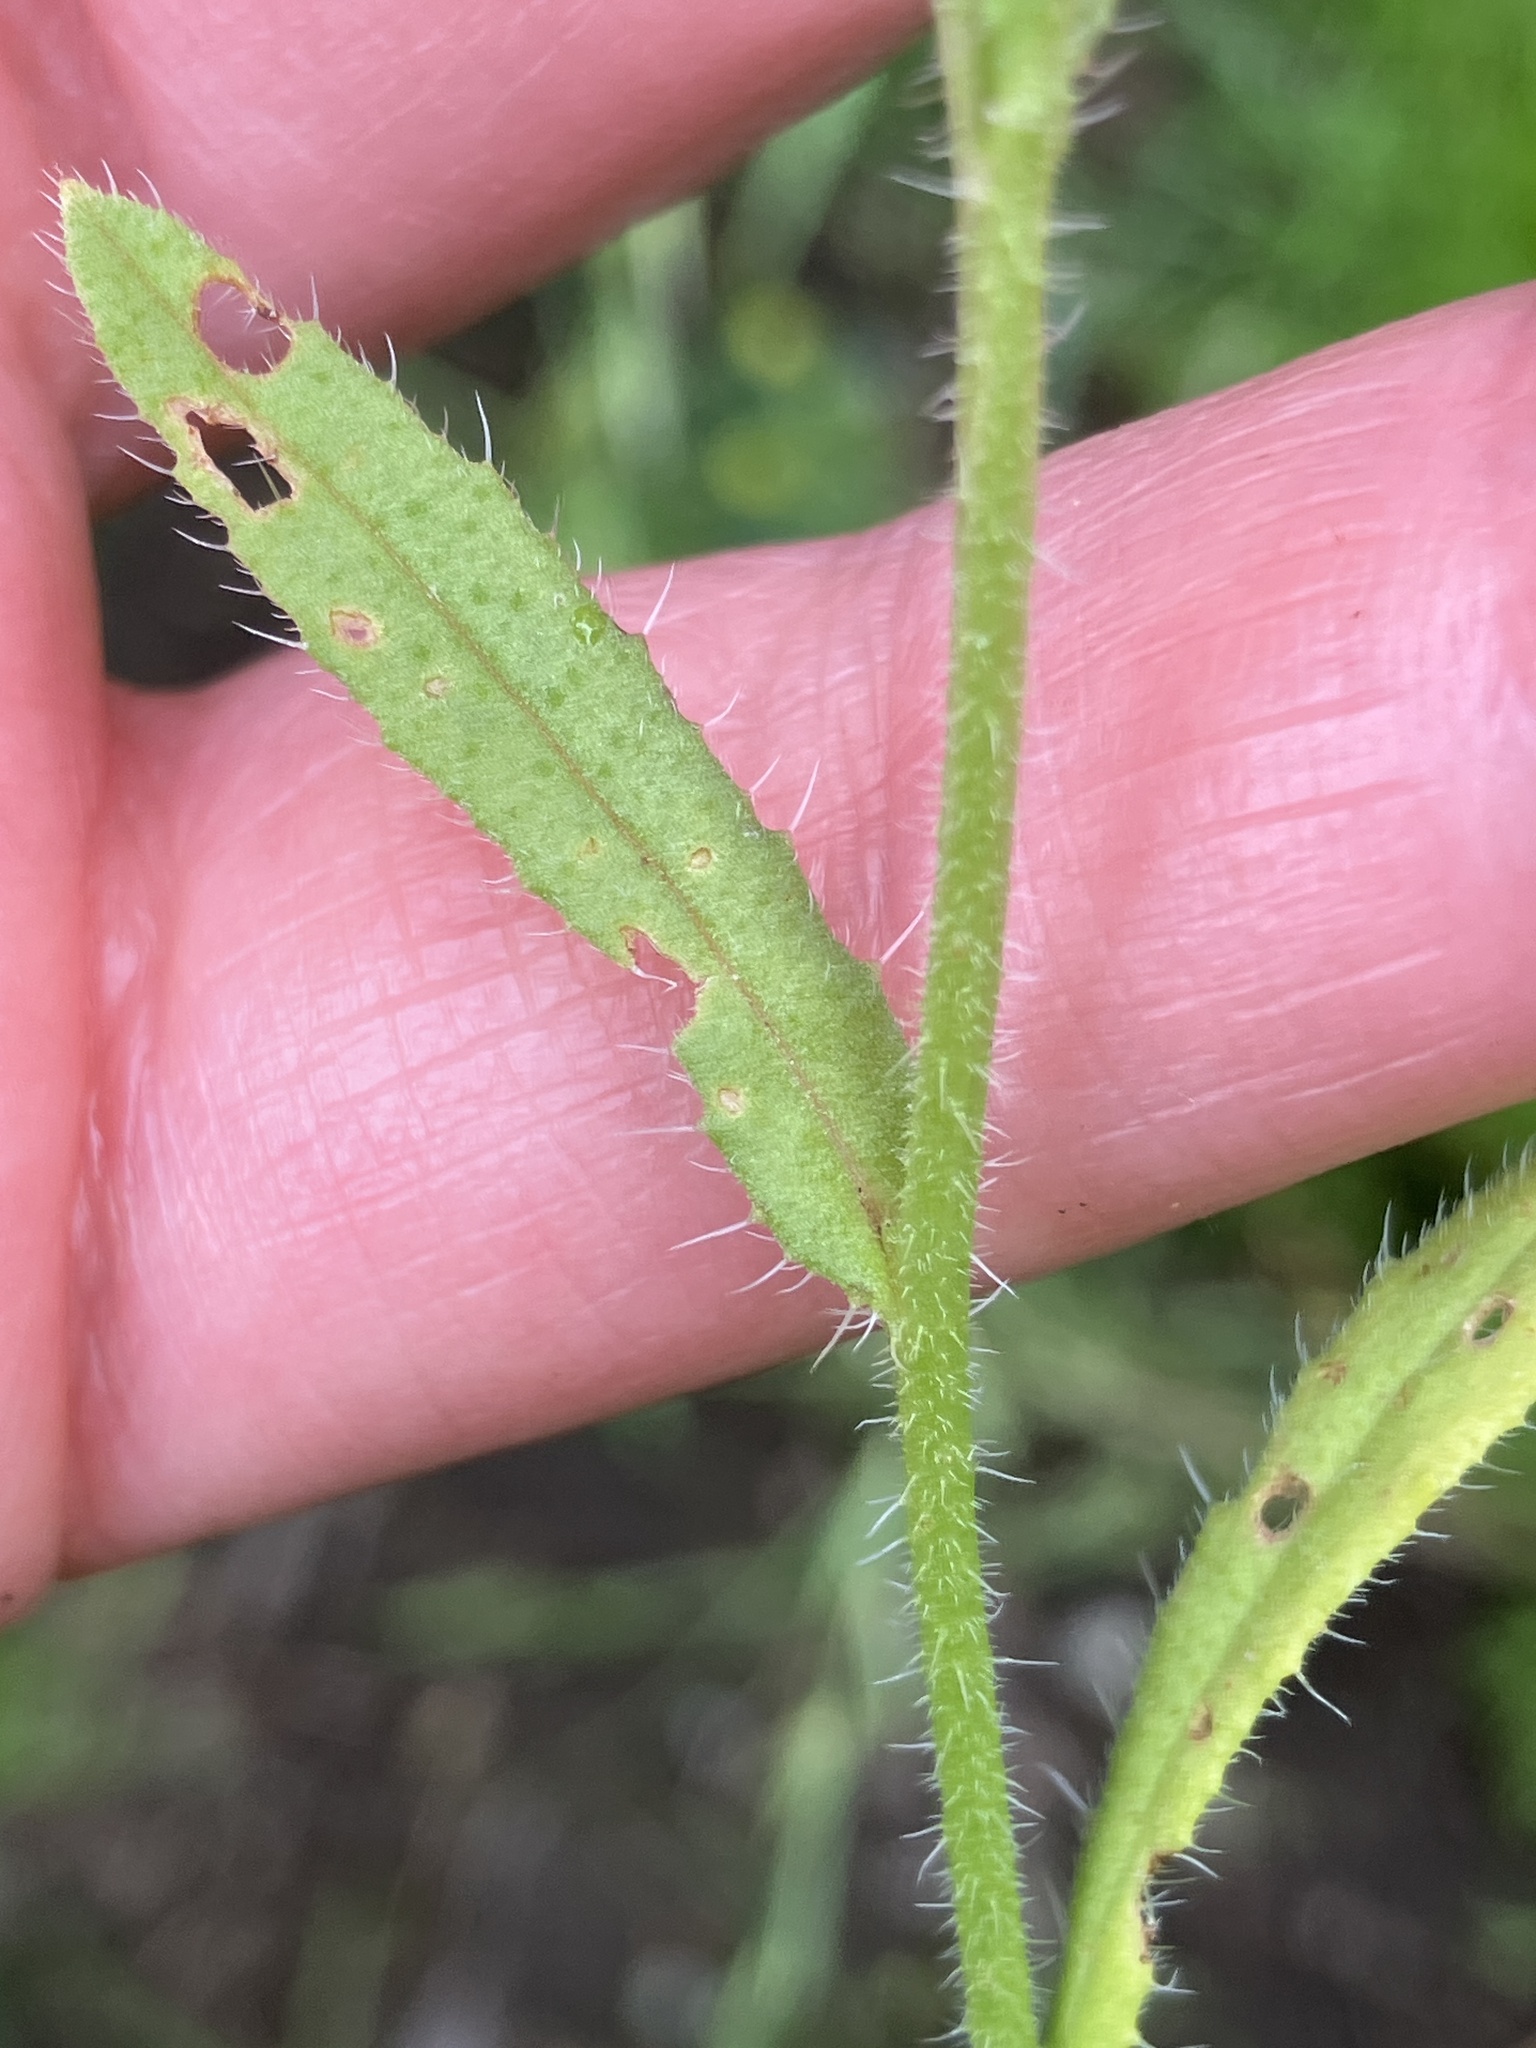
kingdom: Plantae
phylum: Tracheophyta
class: Magnoliopsida
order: Boraginales
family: Boraginaceae
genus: Lycopsis
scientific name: Lycopsis arvensis
